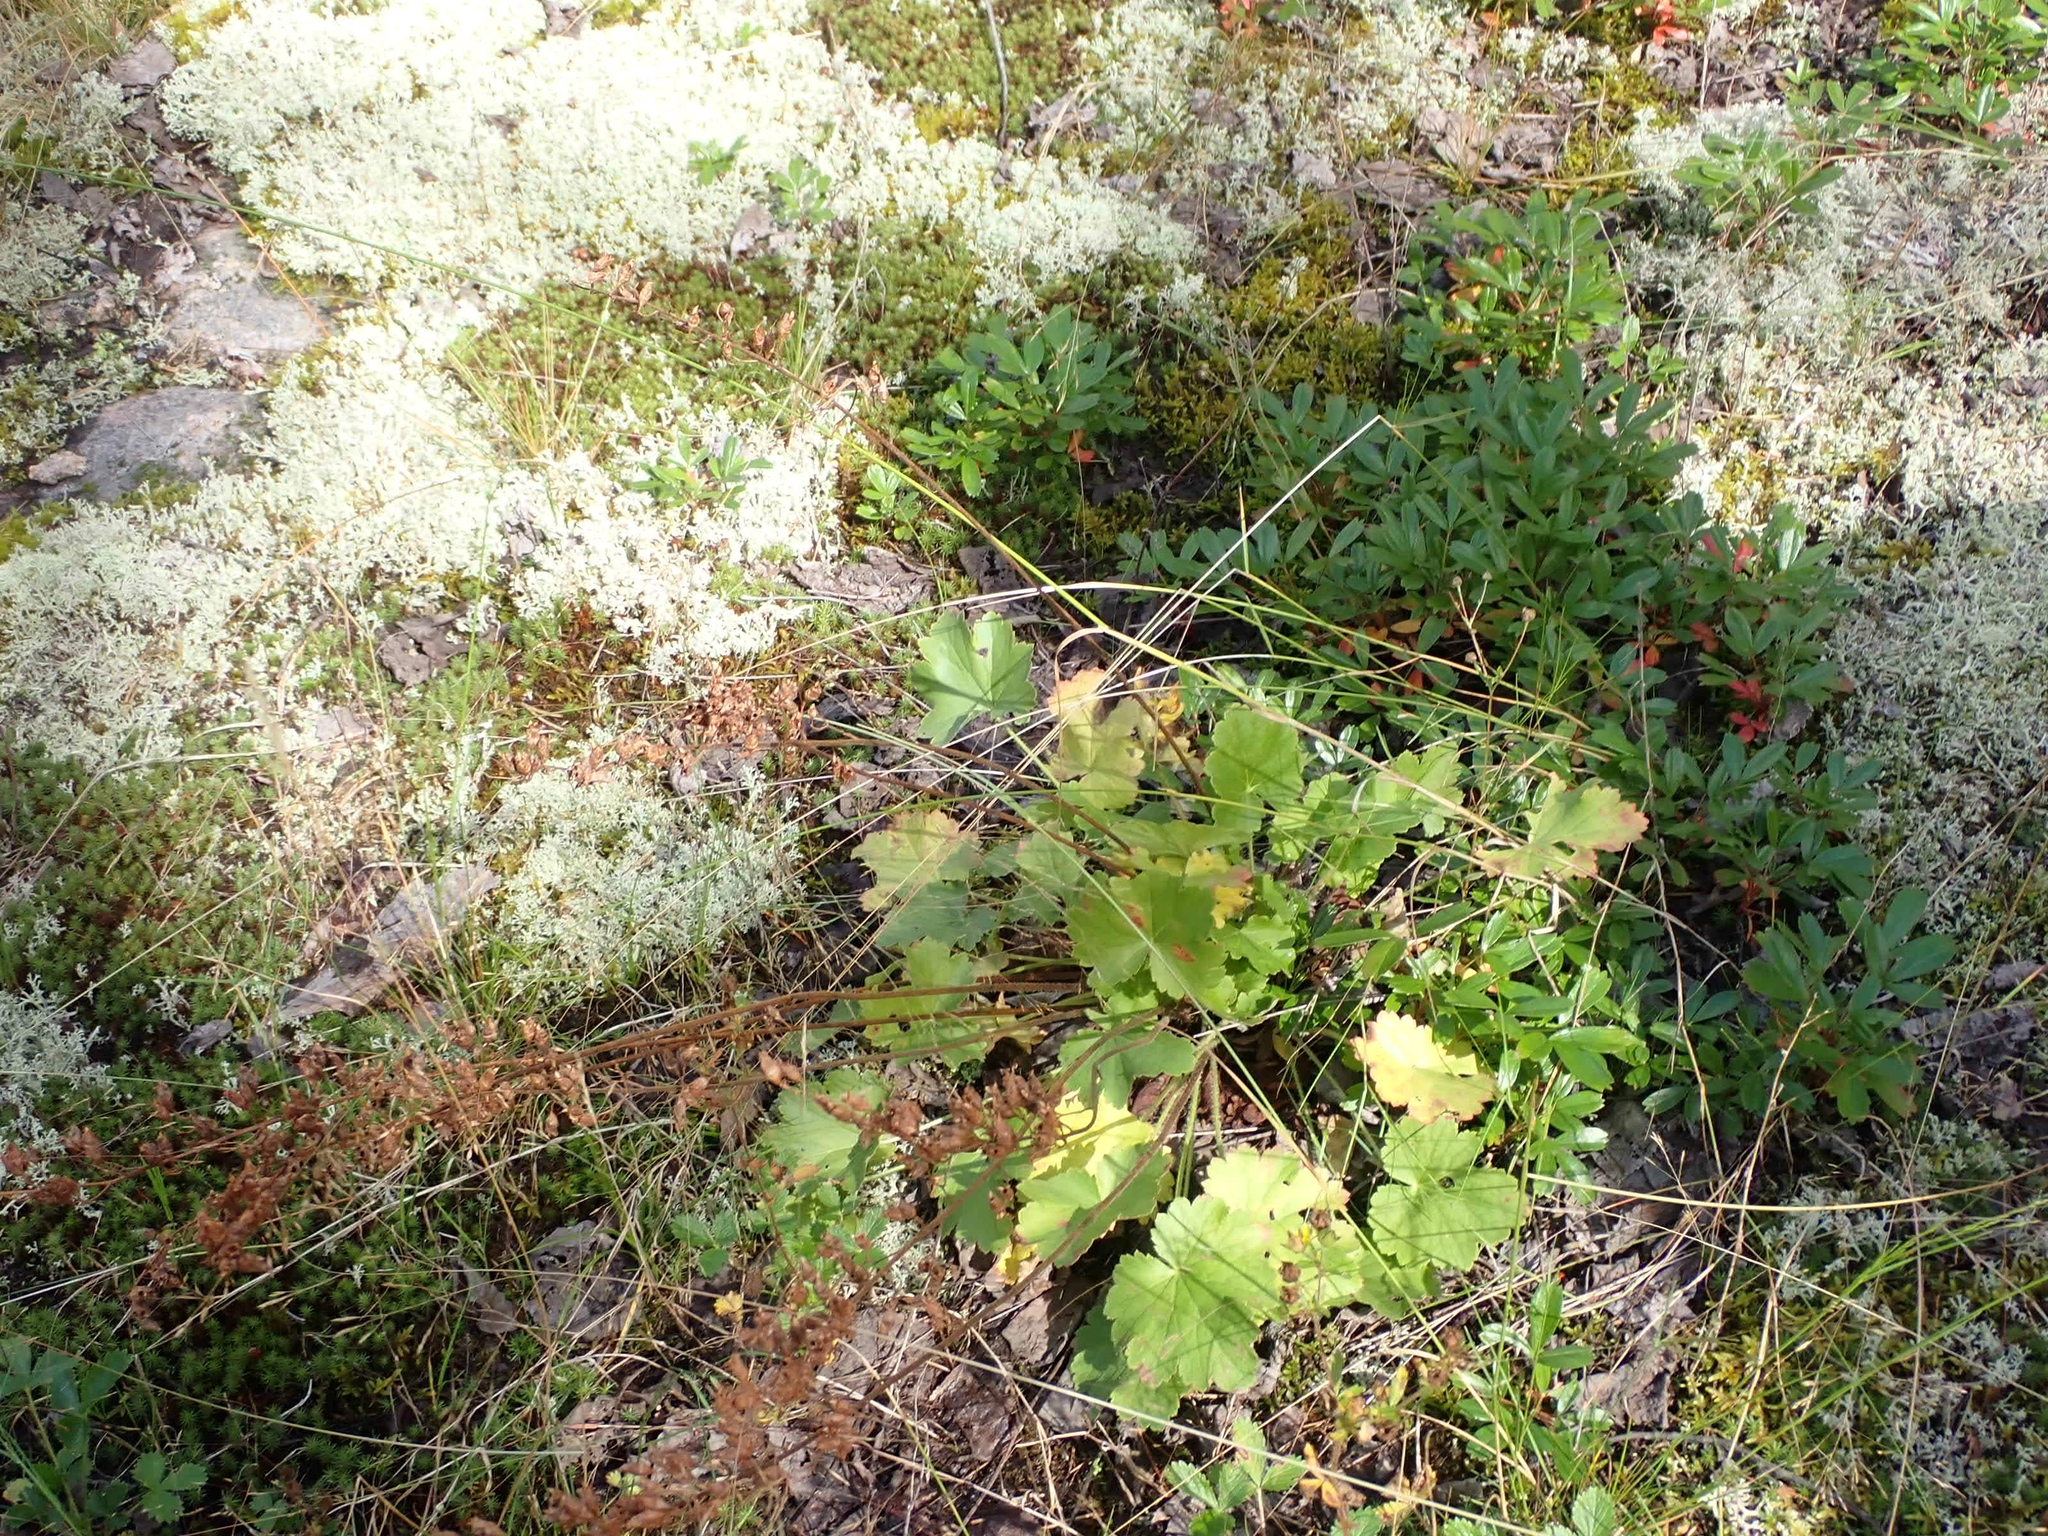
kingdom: Plantae
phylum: Tracheophyta
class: Magnoliopsida
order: Saxifragales
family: Saxifragaceae
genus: Heuchera
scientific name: Heuchera richardsonii
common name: Richardson's alumroot
